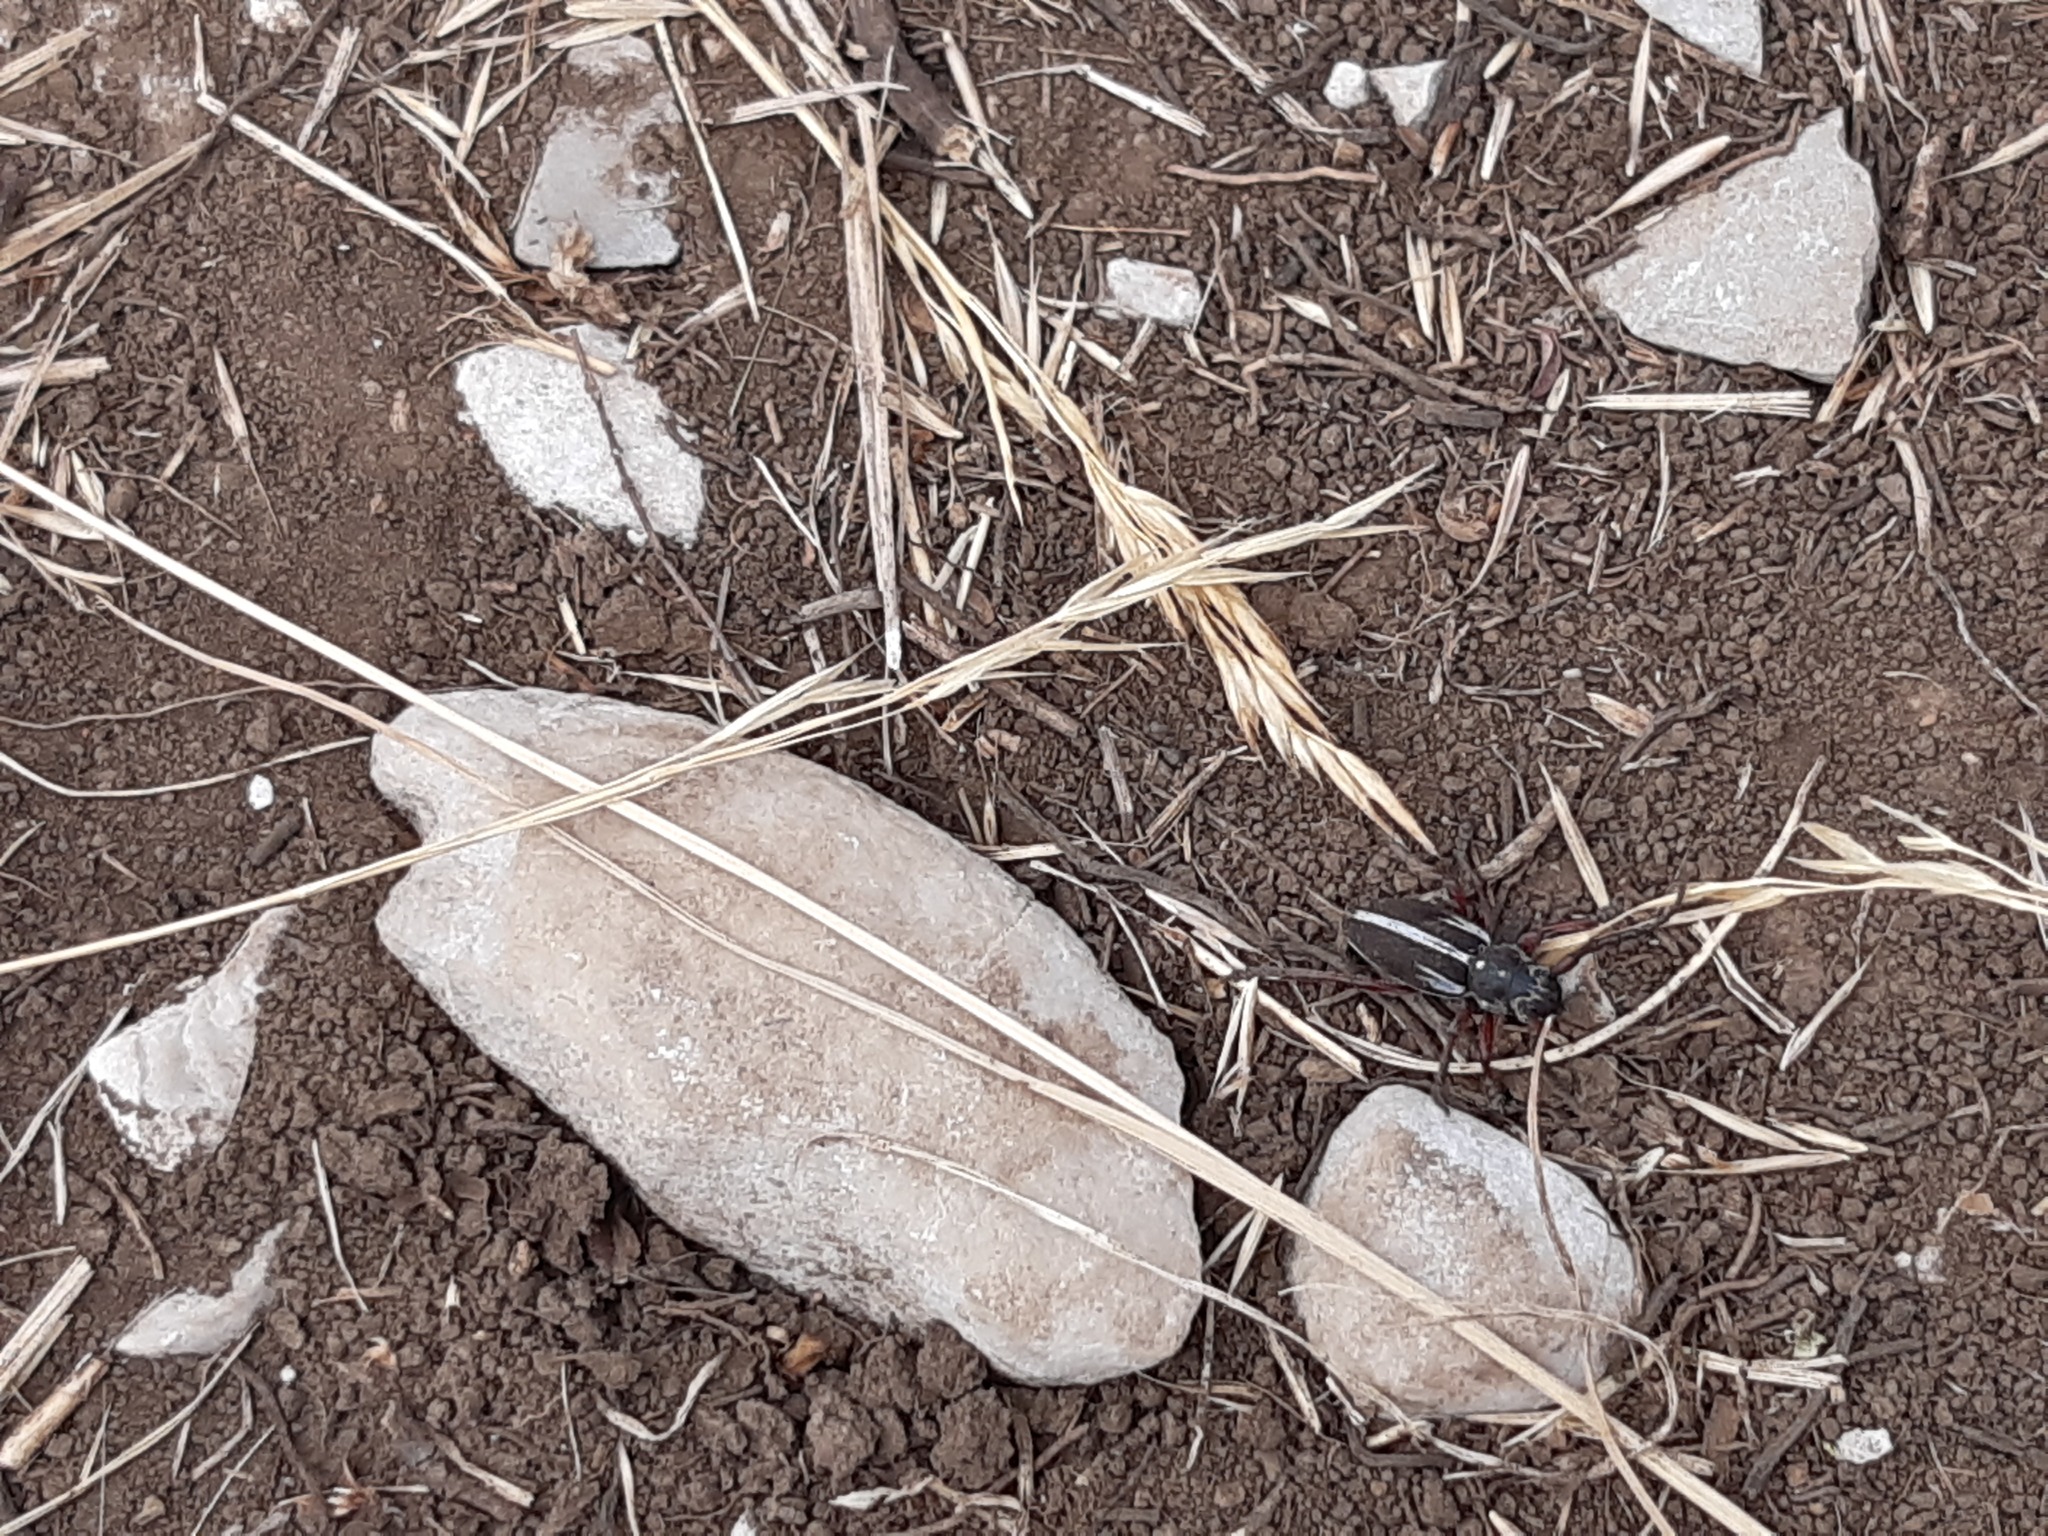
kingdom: Animalia
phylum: Arthropoda
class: Insecta
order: Coleoptera
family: Cerambycidae
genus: Dorcadion
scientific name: Dorcadion arenarium
